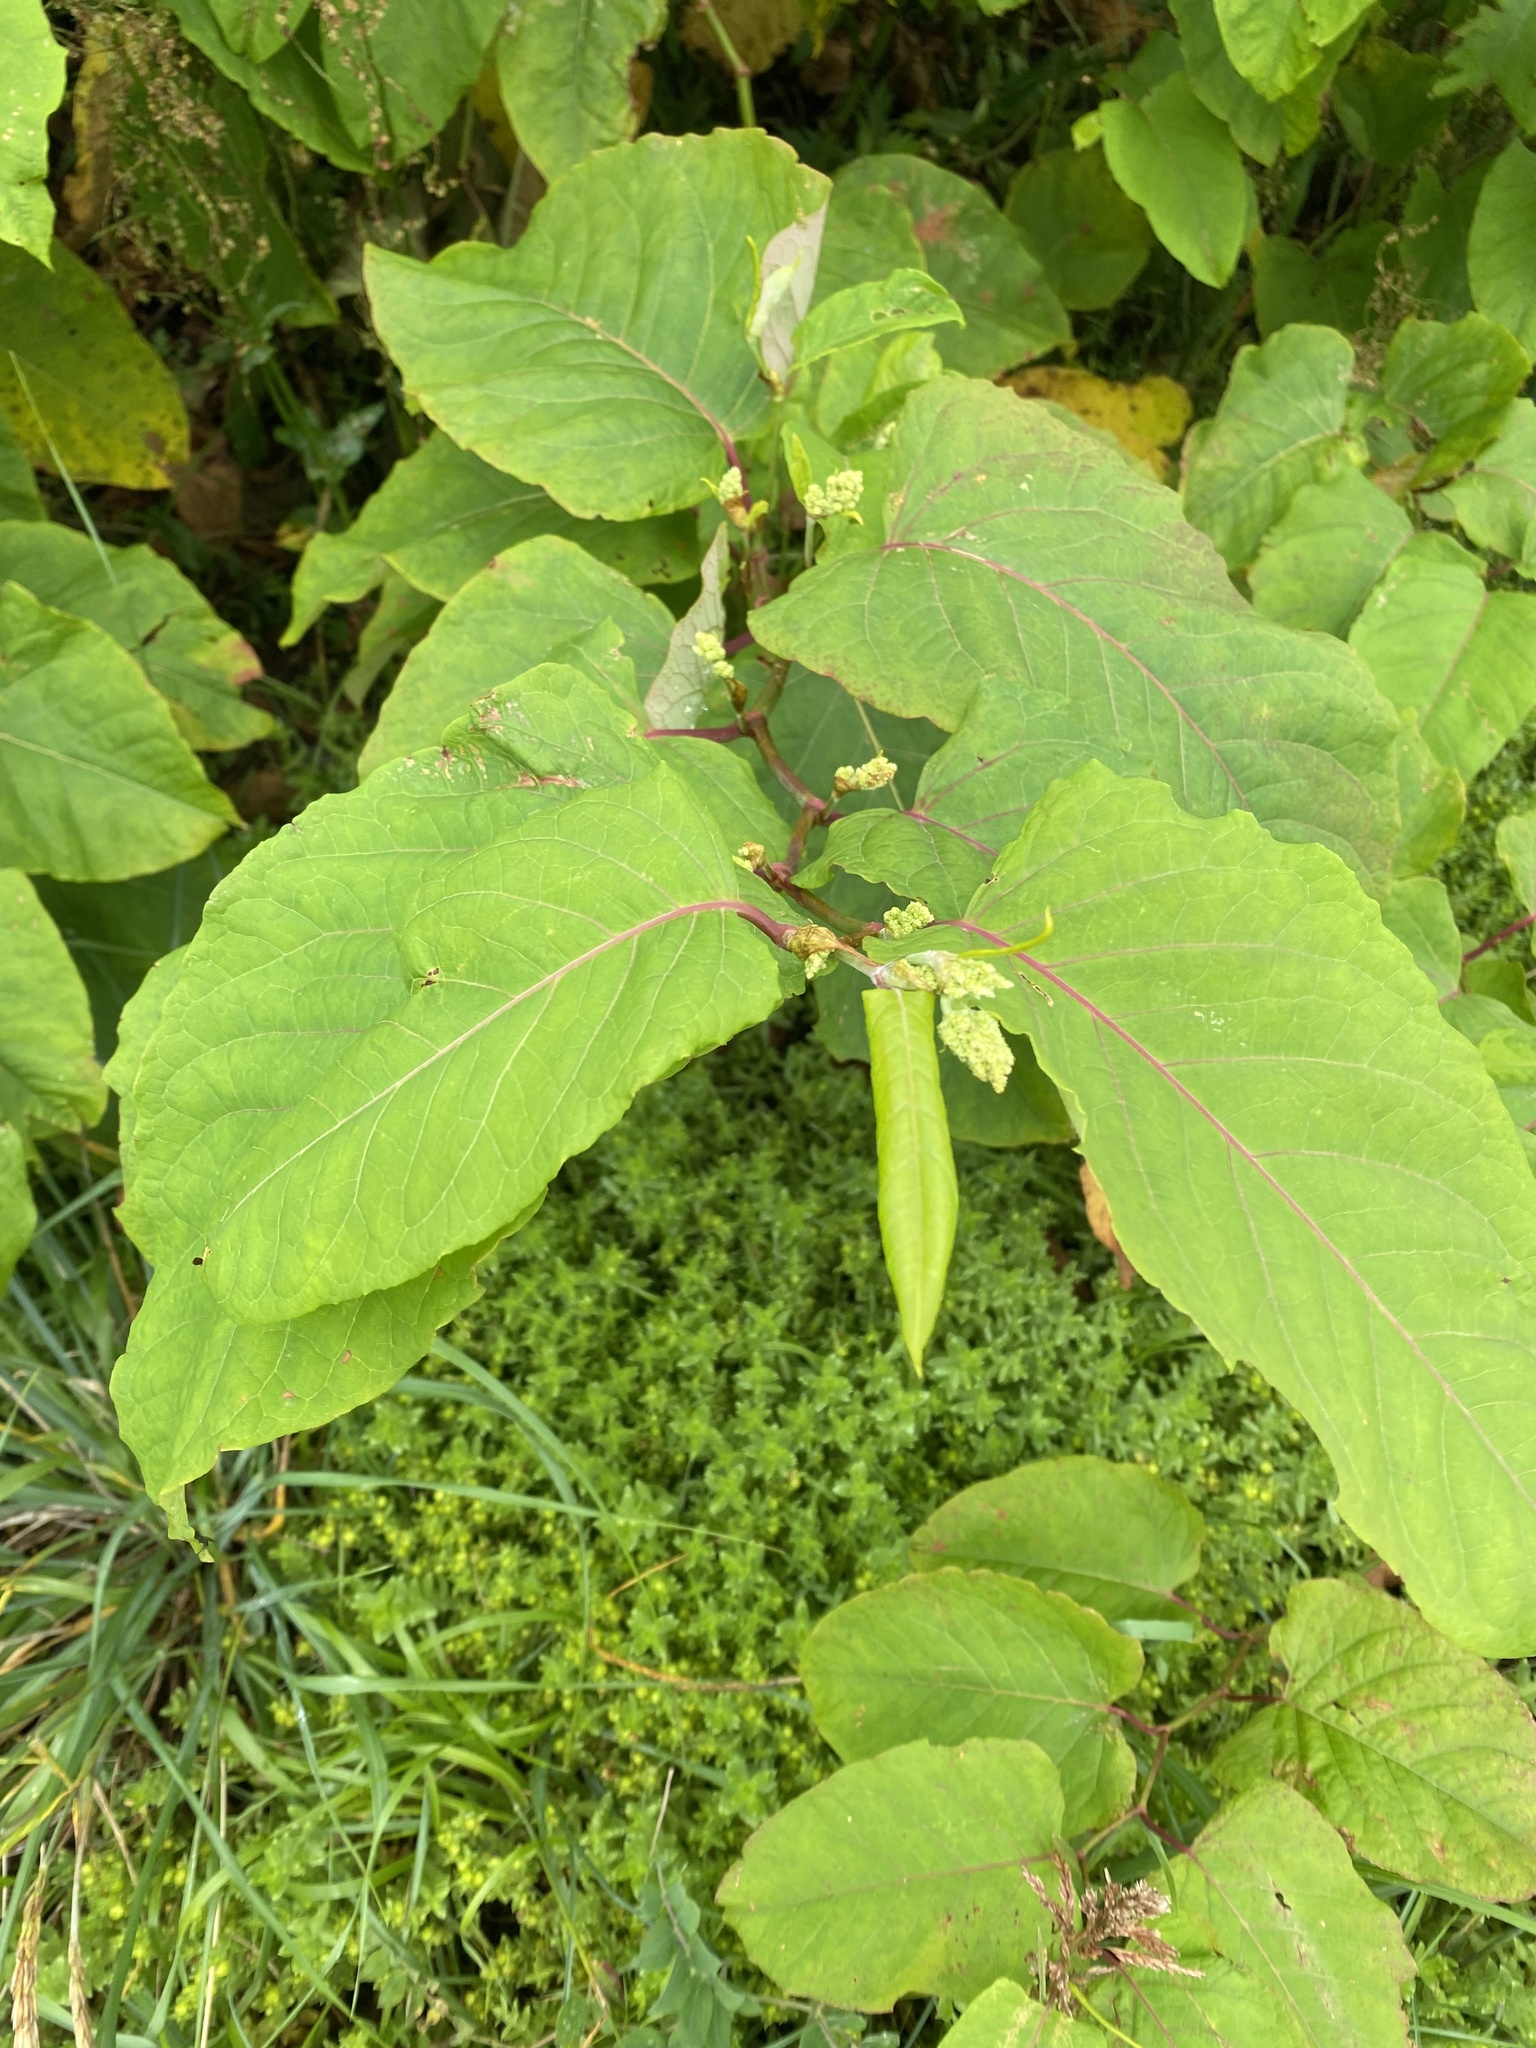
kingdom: Plantae
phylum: Tracheophyta
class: Magnoliopsida
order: Caryophyllales
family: Polygonaceae
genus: Reynoutria
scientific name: Reynoutria sachalinensis
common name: Giant knotweed
